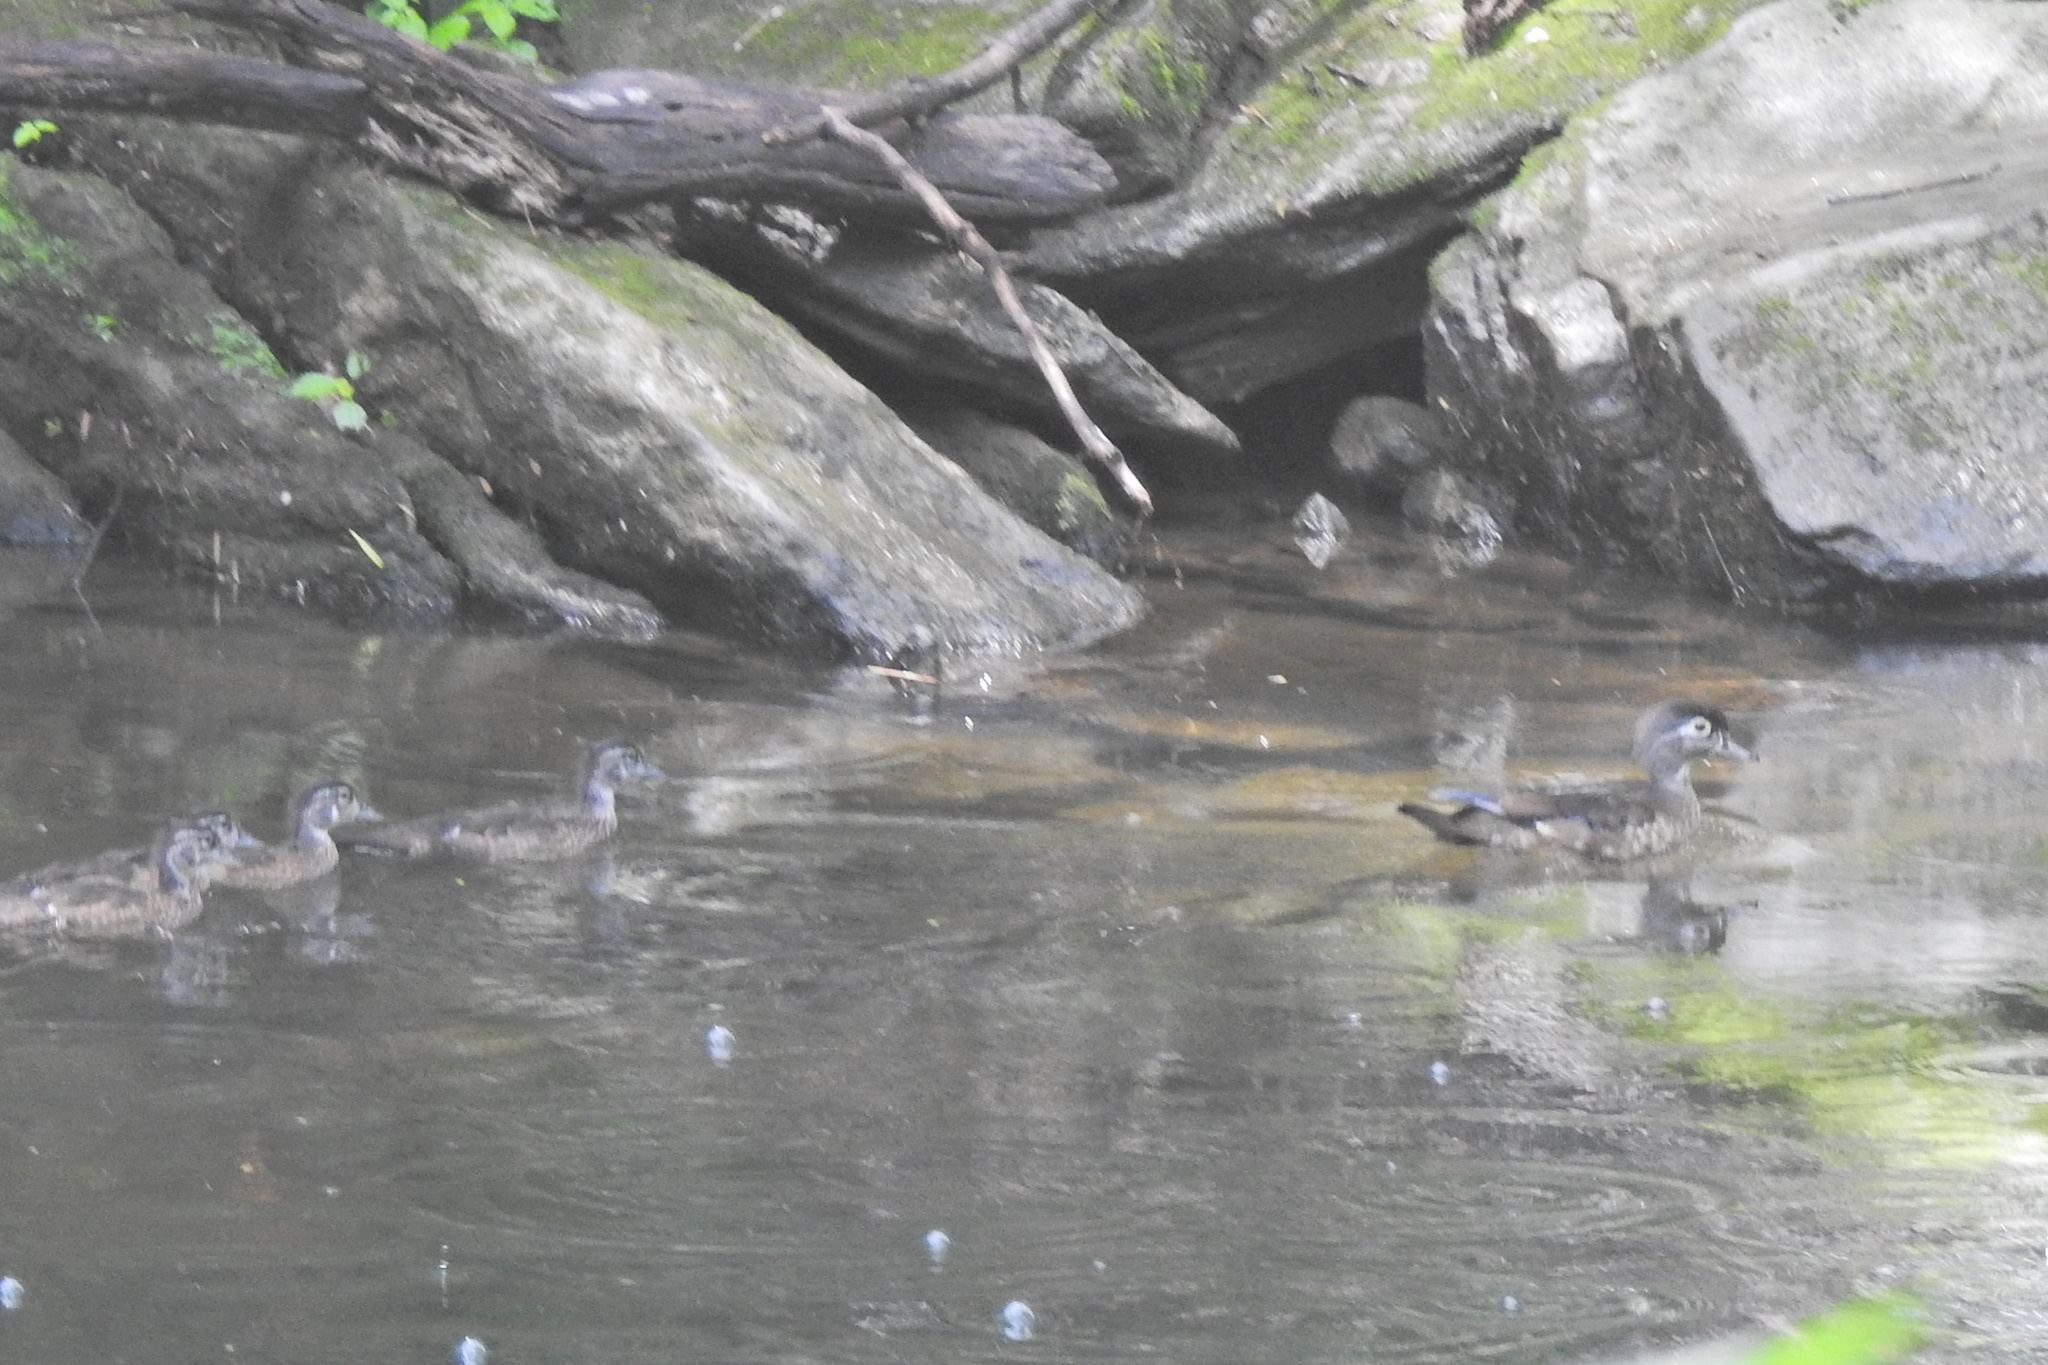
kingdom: Animalia
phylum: Chordata
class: Aves
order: Anseriformes
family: Anatidae
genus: Aix
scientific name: Aix sponsa
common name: Wood duck
